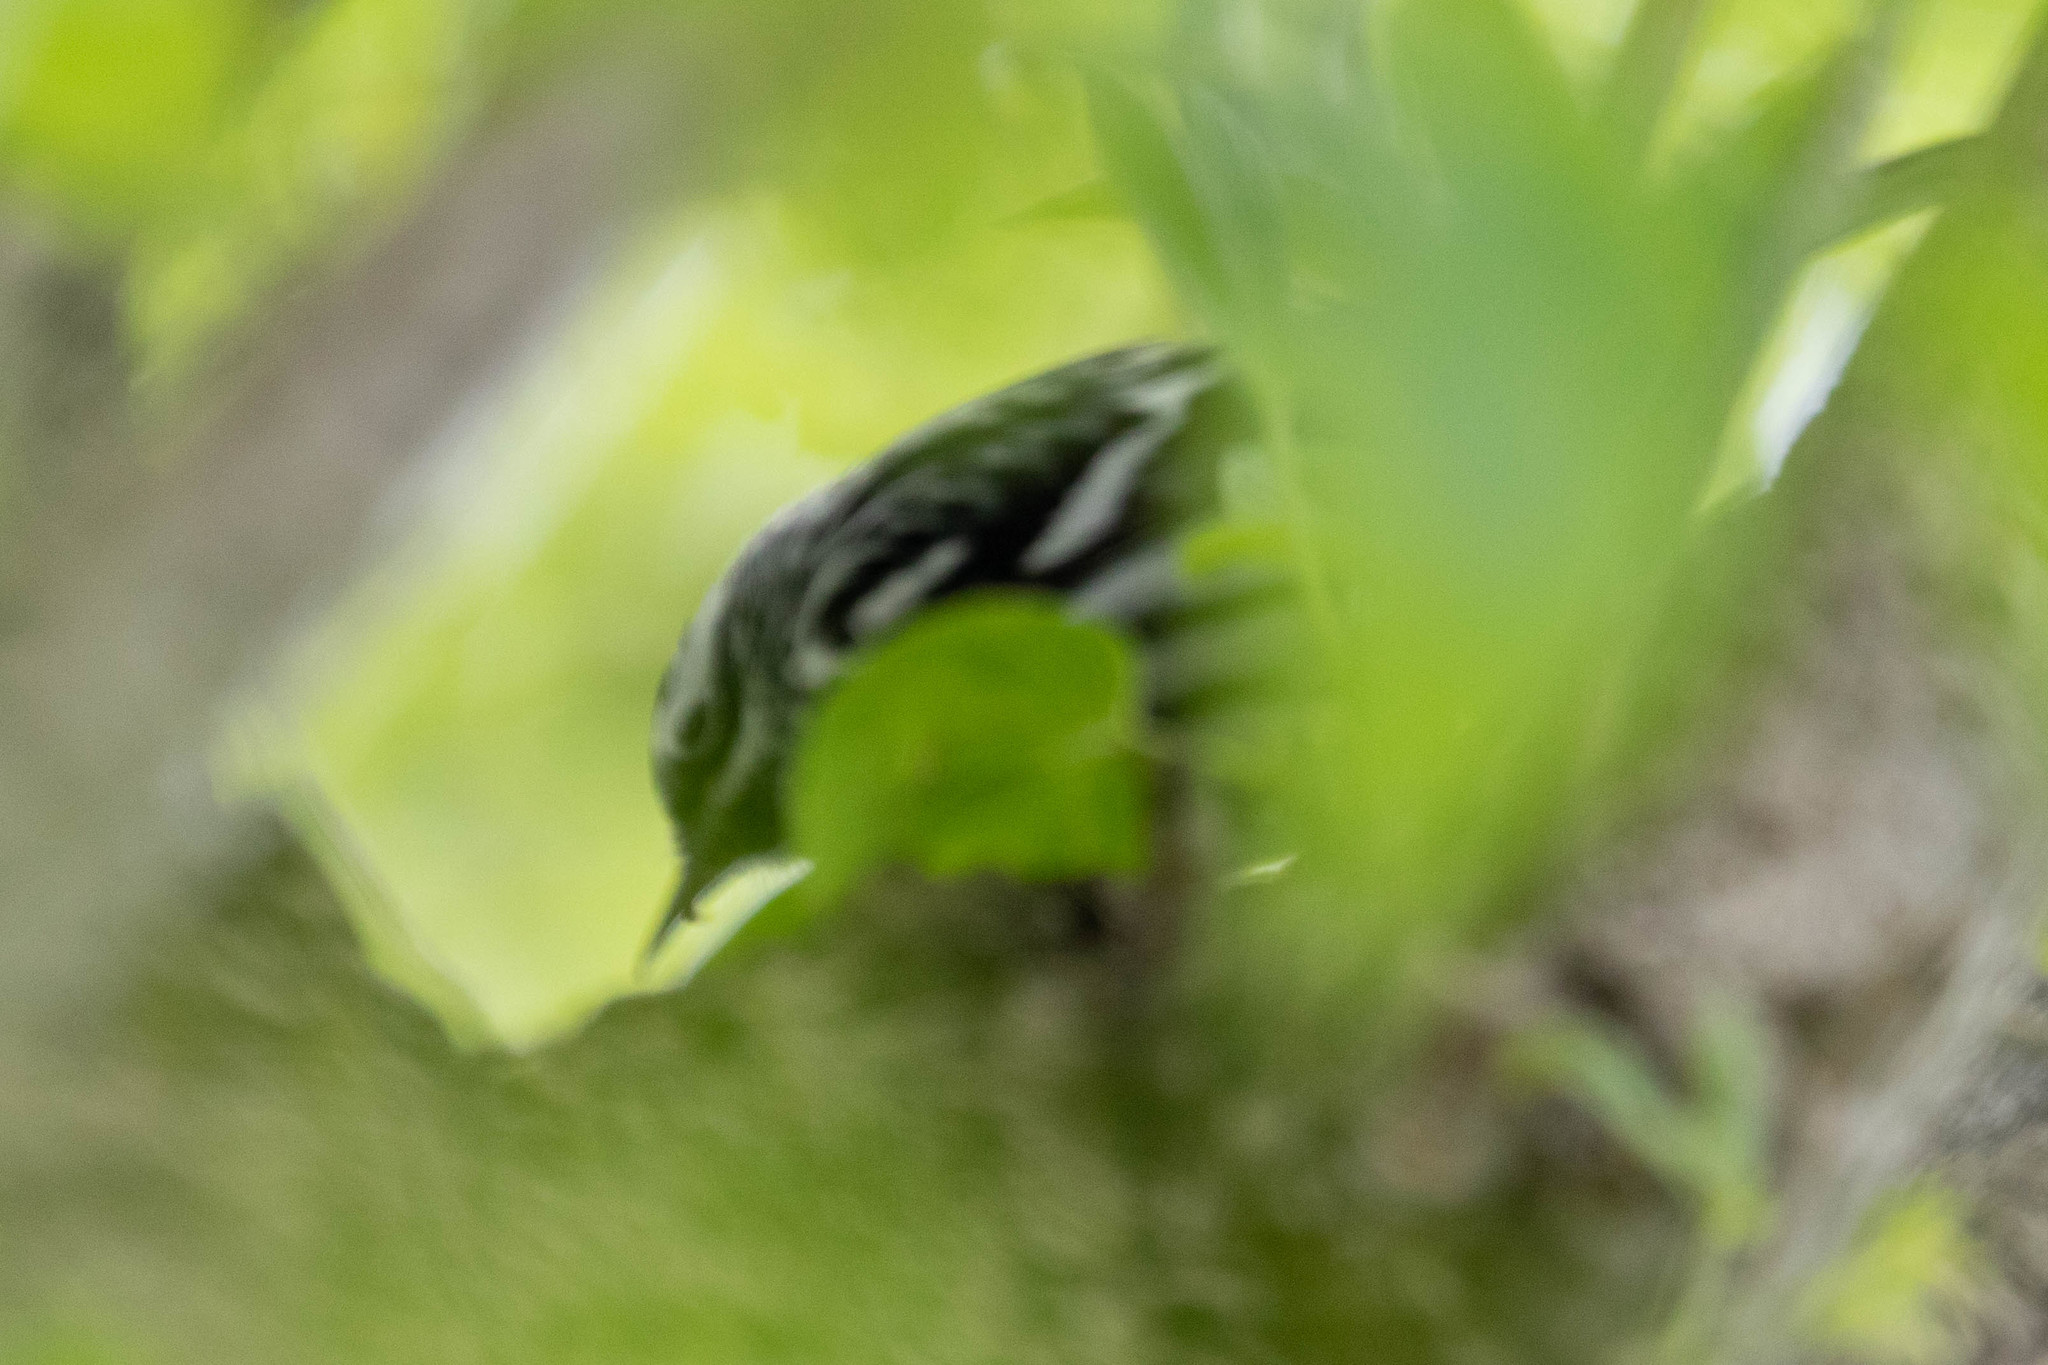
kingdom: Animalia
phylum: Chordata
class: Aves
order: Passeriformes
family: Parulidae
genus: Mniotilta
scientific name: Mniotilta varia
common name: Black-and-white warbler
